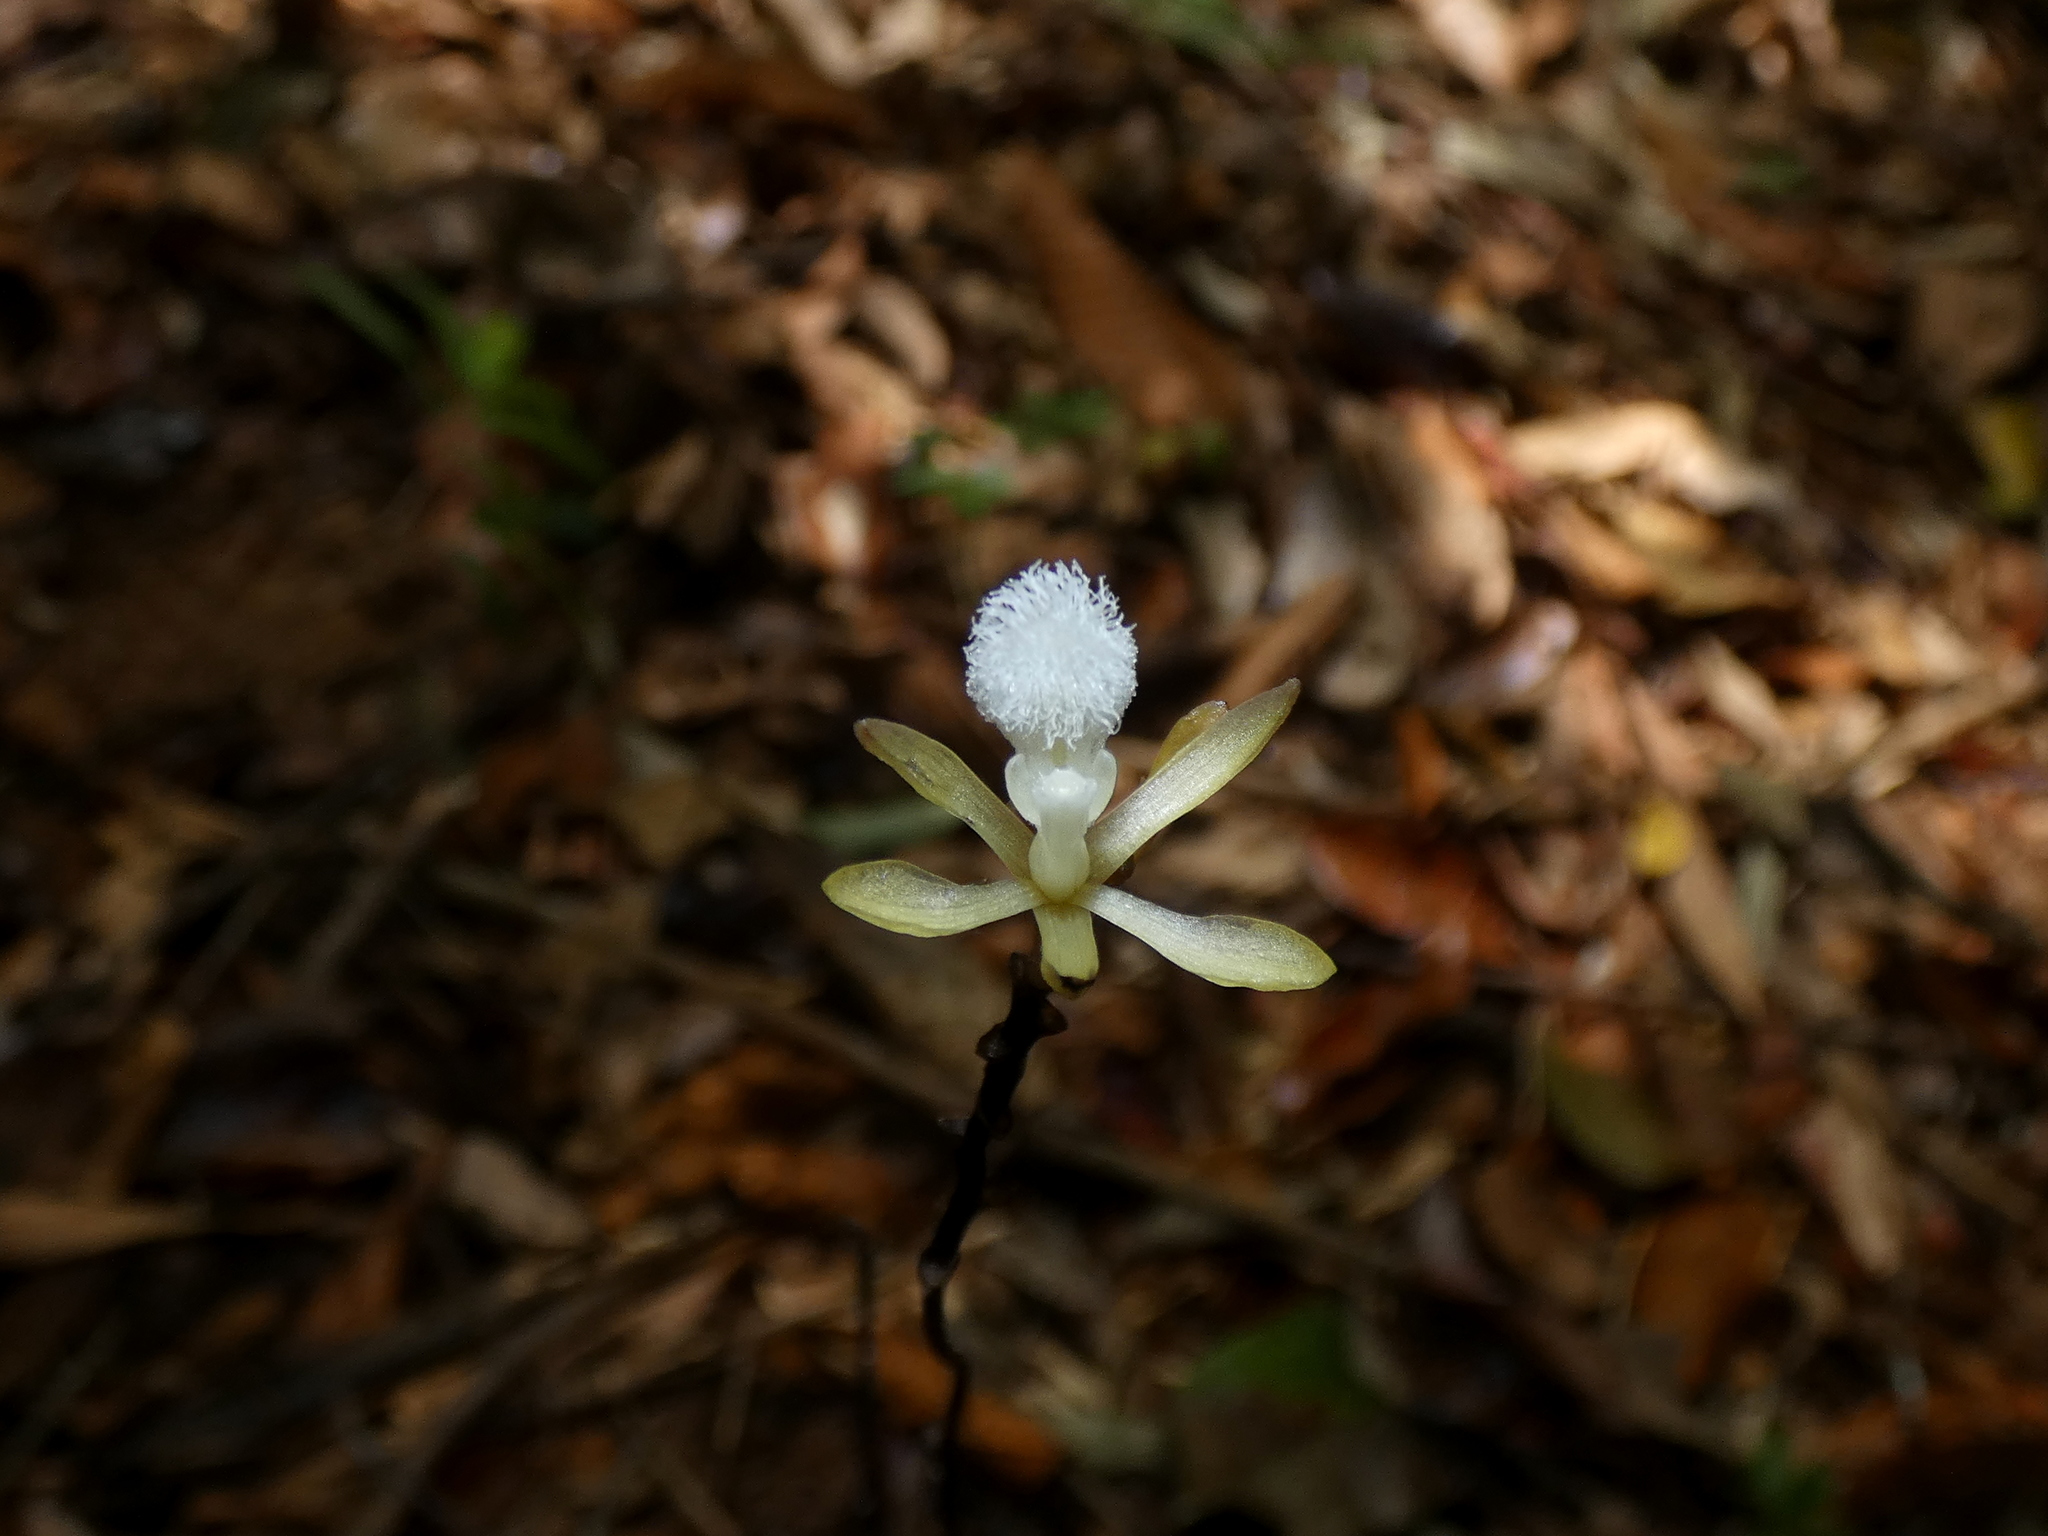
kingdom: Plantae
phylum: Tracheophyta
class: Liliopsida
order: Asparagales
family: Orchidaceae
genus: Lecanorchis
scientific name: Lecanorchis multiflora
